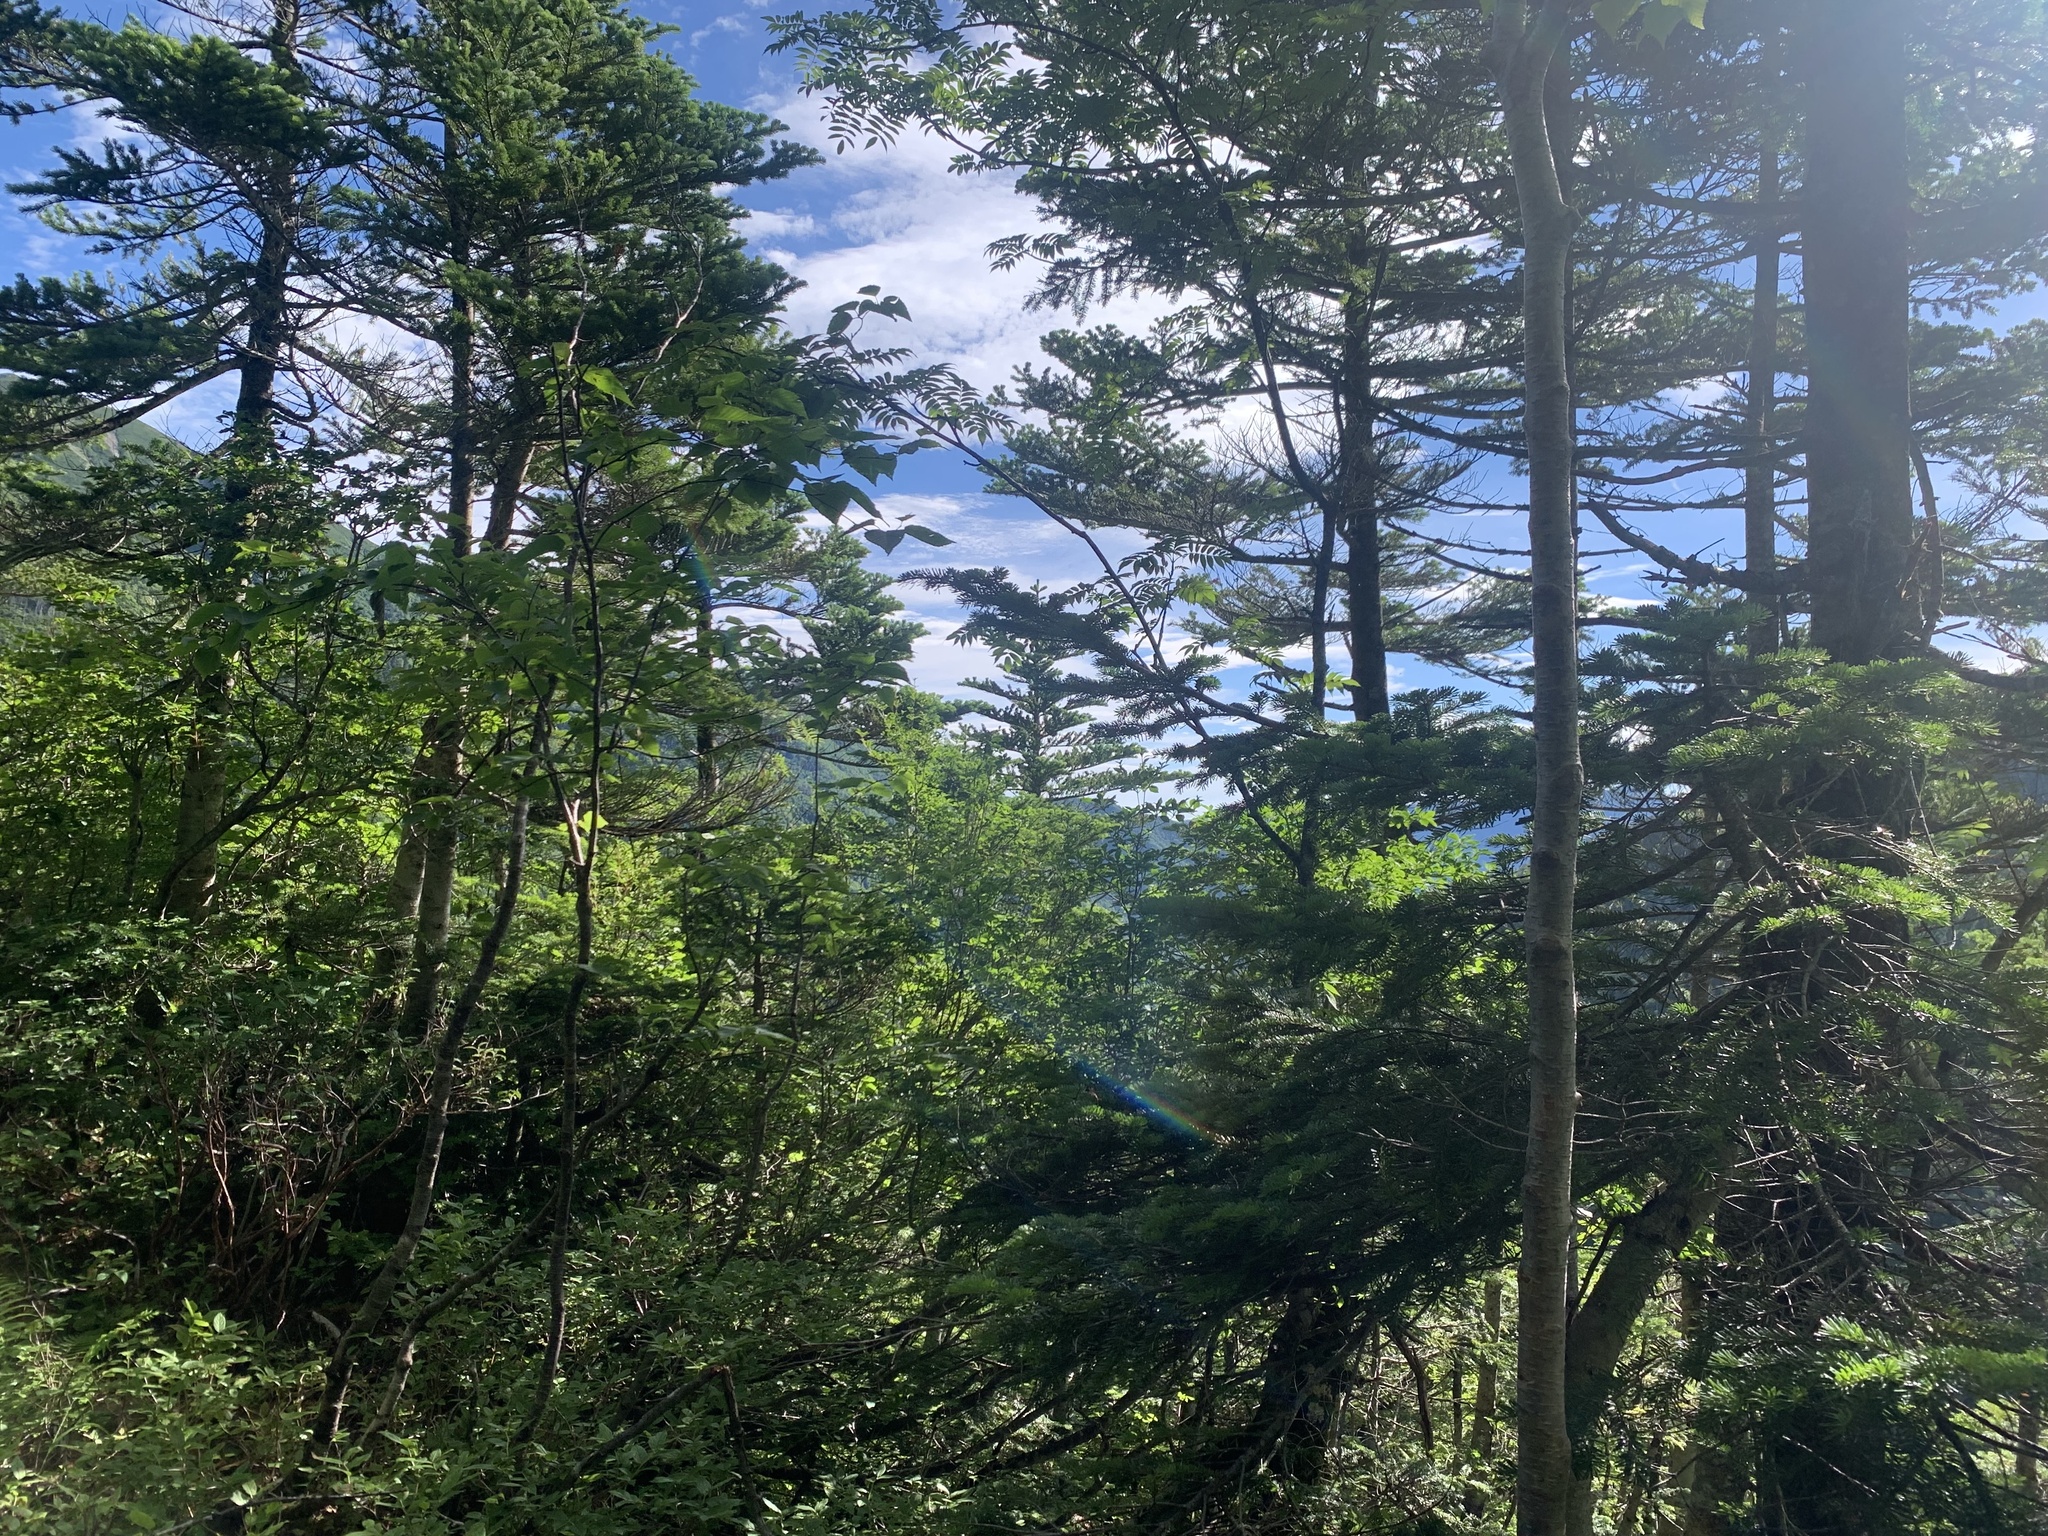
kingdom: Animalia
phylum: Chordata
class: Aves
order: Passeriformes
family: Muscicapidae
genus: Erithacus
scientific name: Erithacus akahige
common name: Japanese robin
